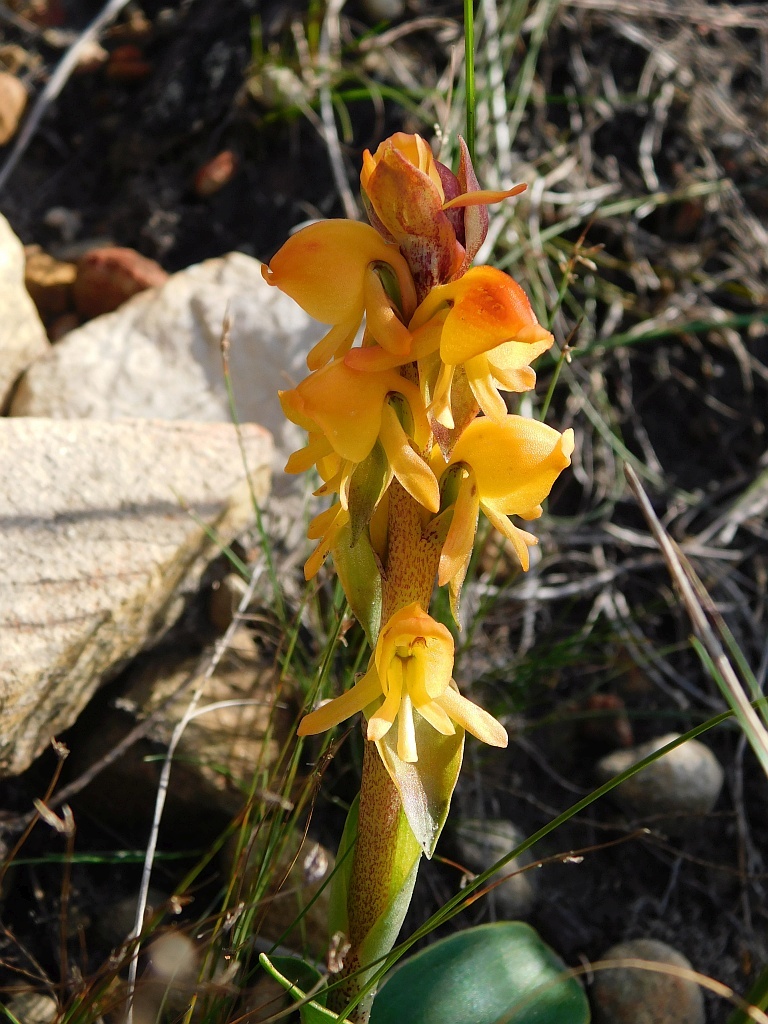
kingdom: Plantae
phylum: Tracheophyta
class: Liliopsida
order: Asparagales
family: Orchidaceae
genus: Satyrium
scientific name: Satyrium coriifolium
